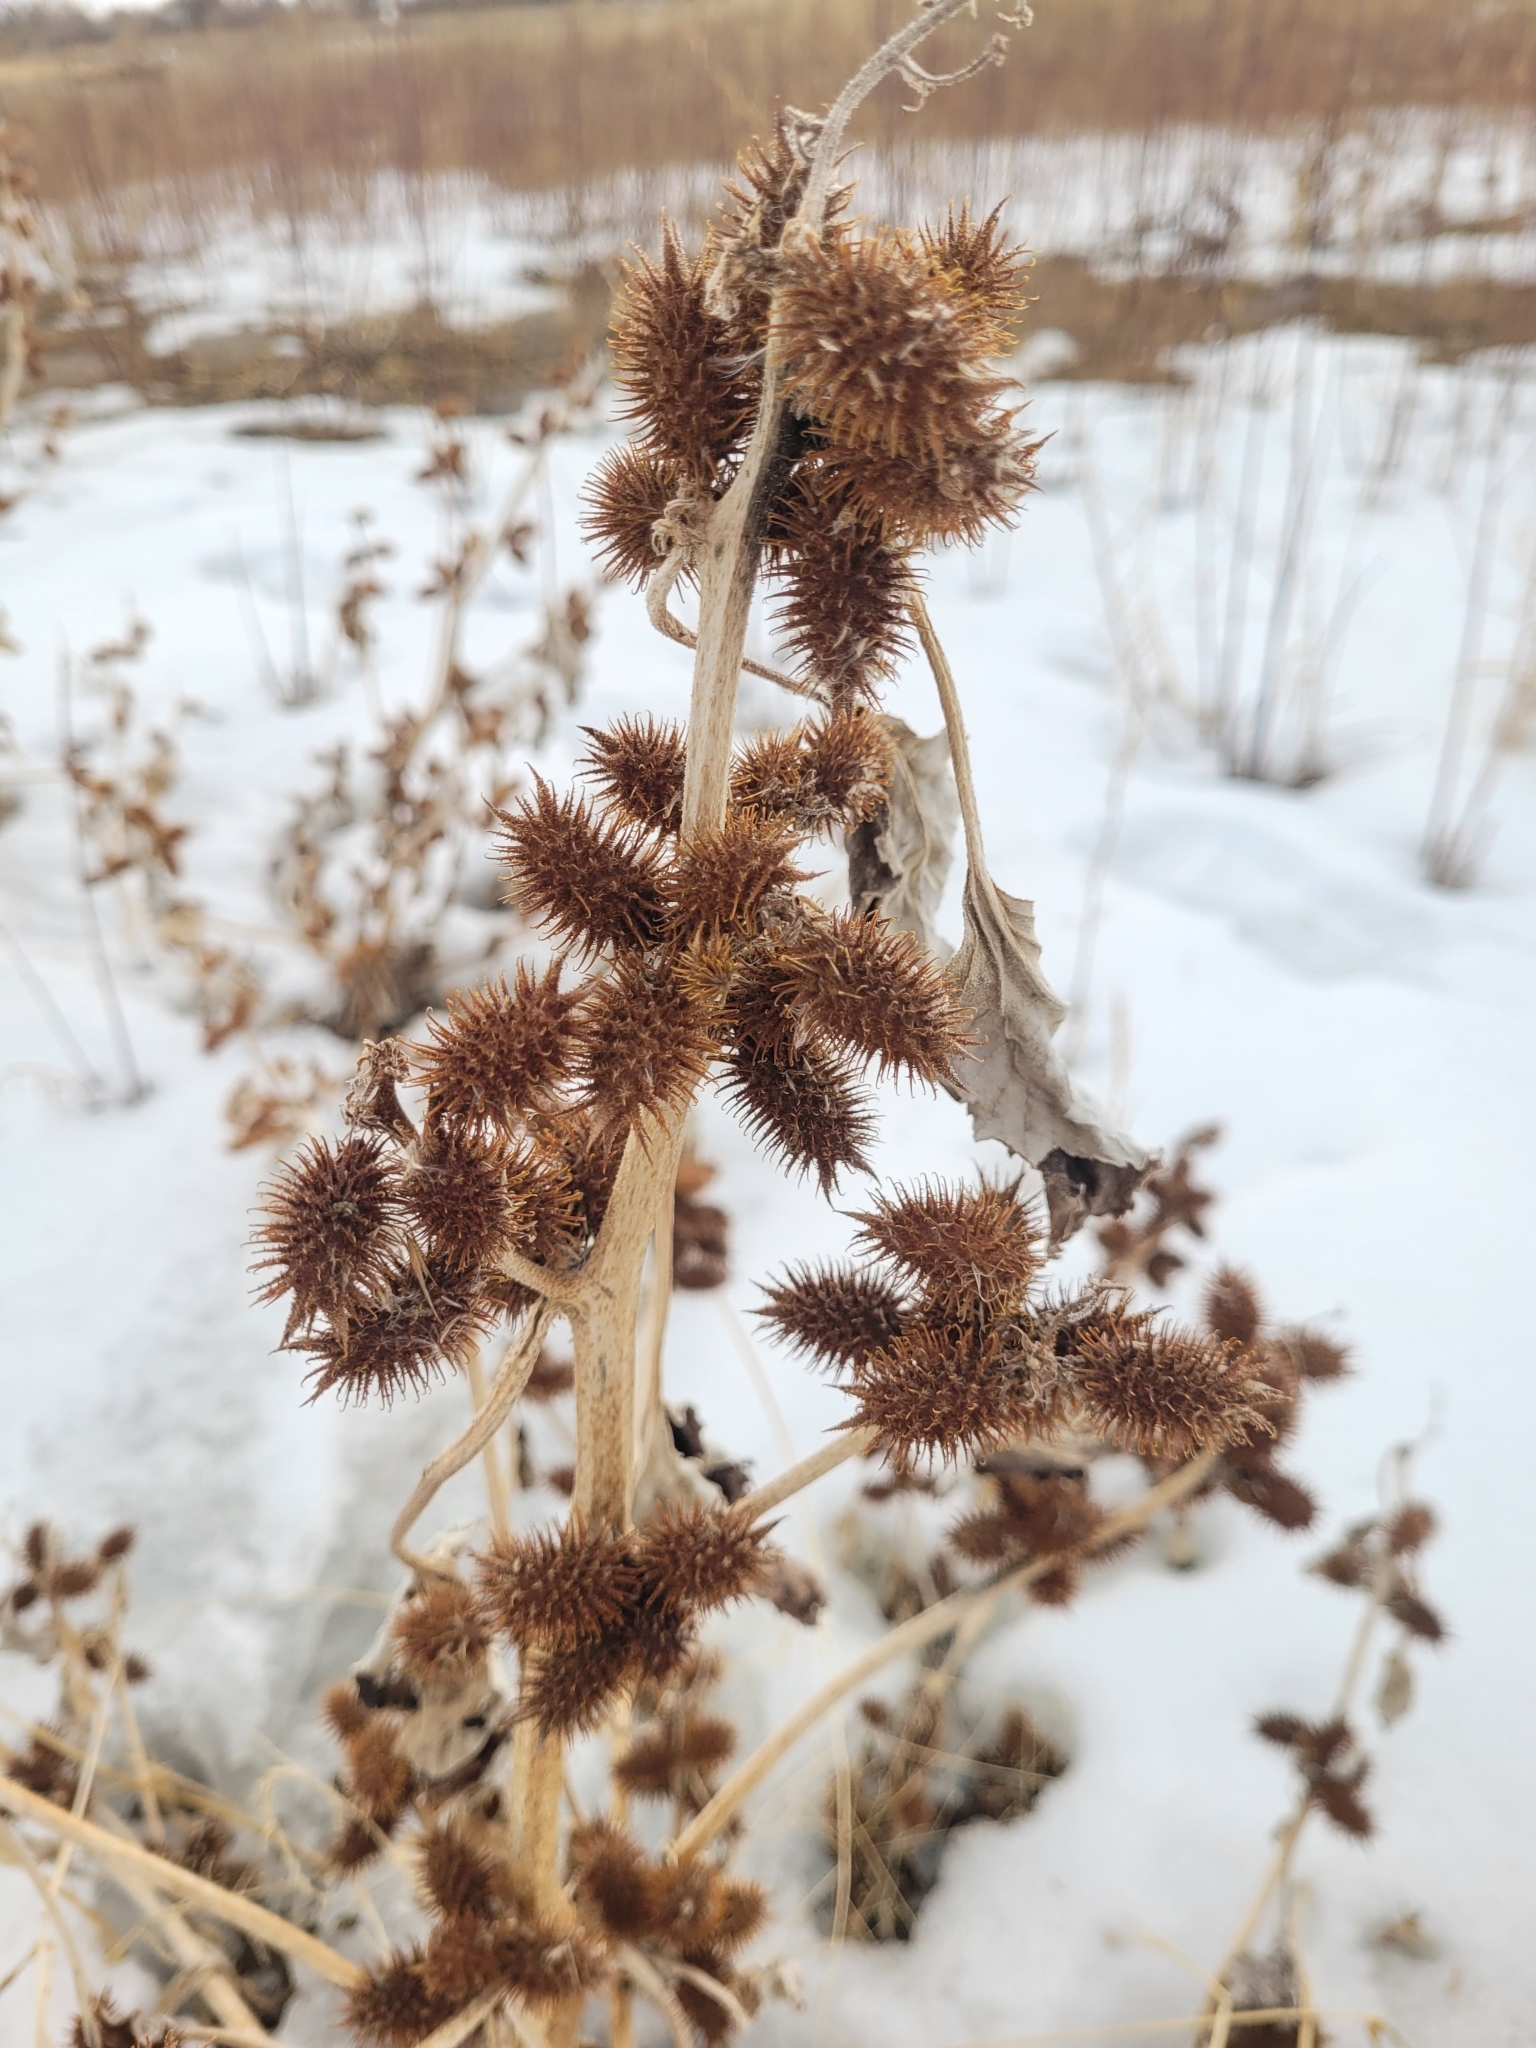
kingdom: Plantae
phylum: Tracheophyta
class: Magnoliopsida
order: Asterales
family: Asteraceae
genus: Xanthium
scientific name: Xanthium strumarium
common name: Rough cocklebur
